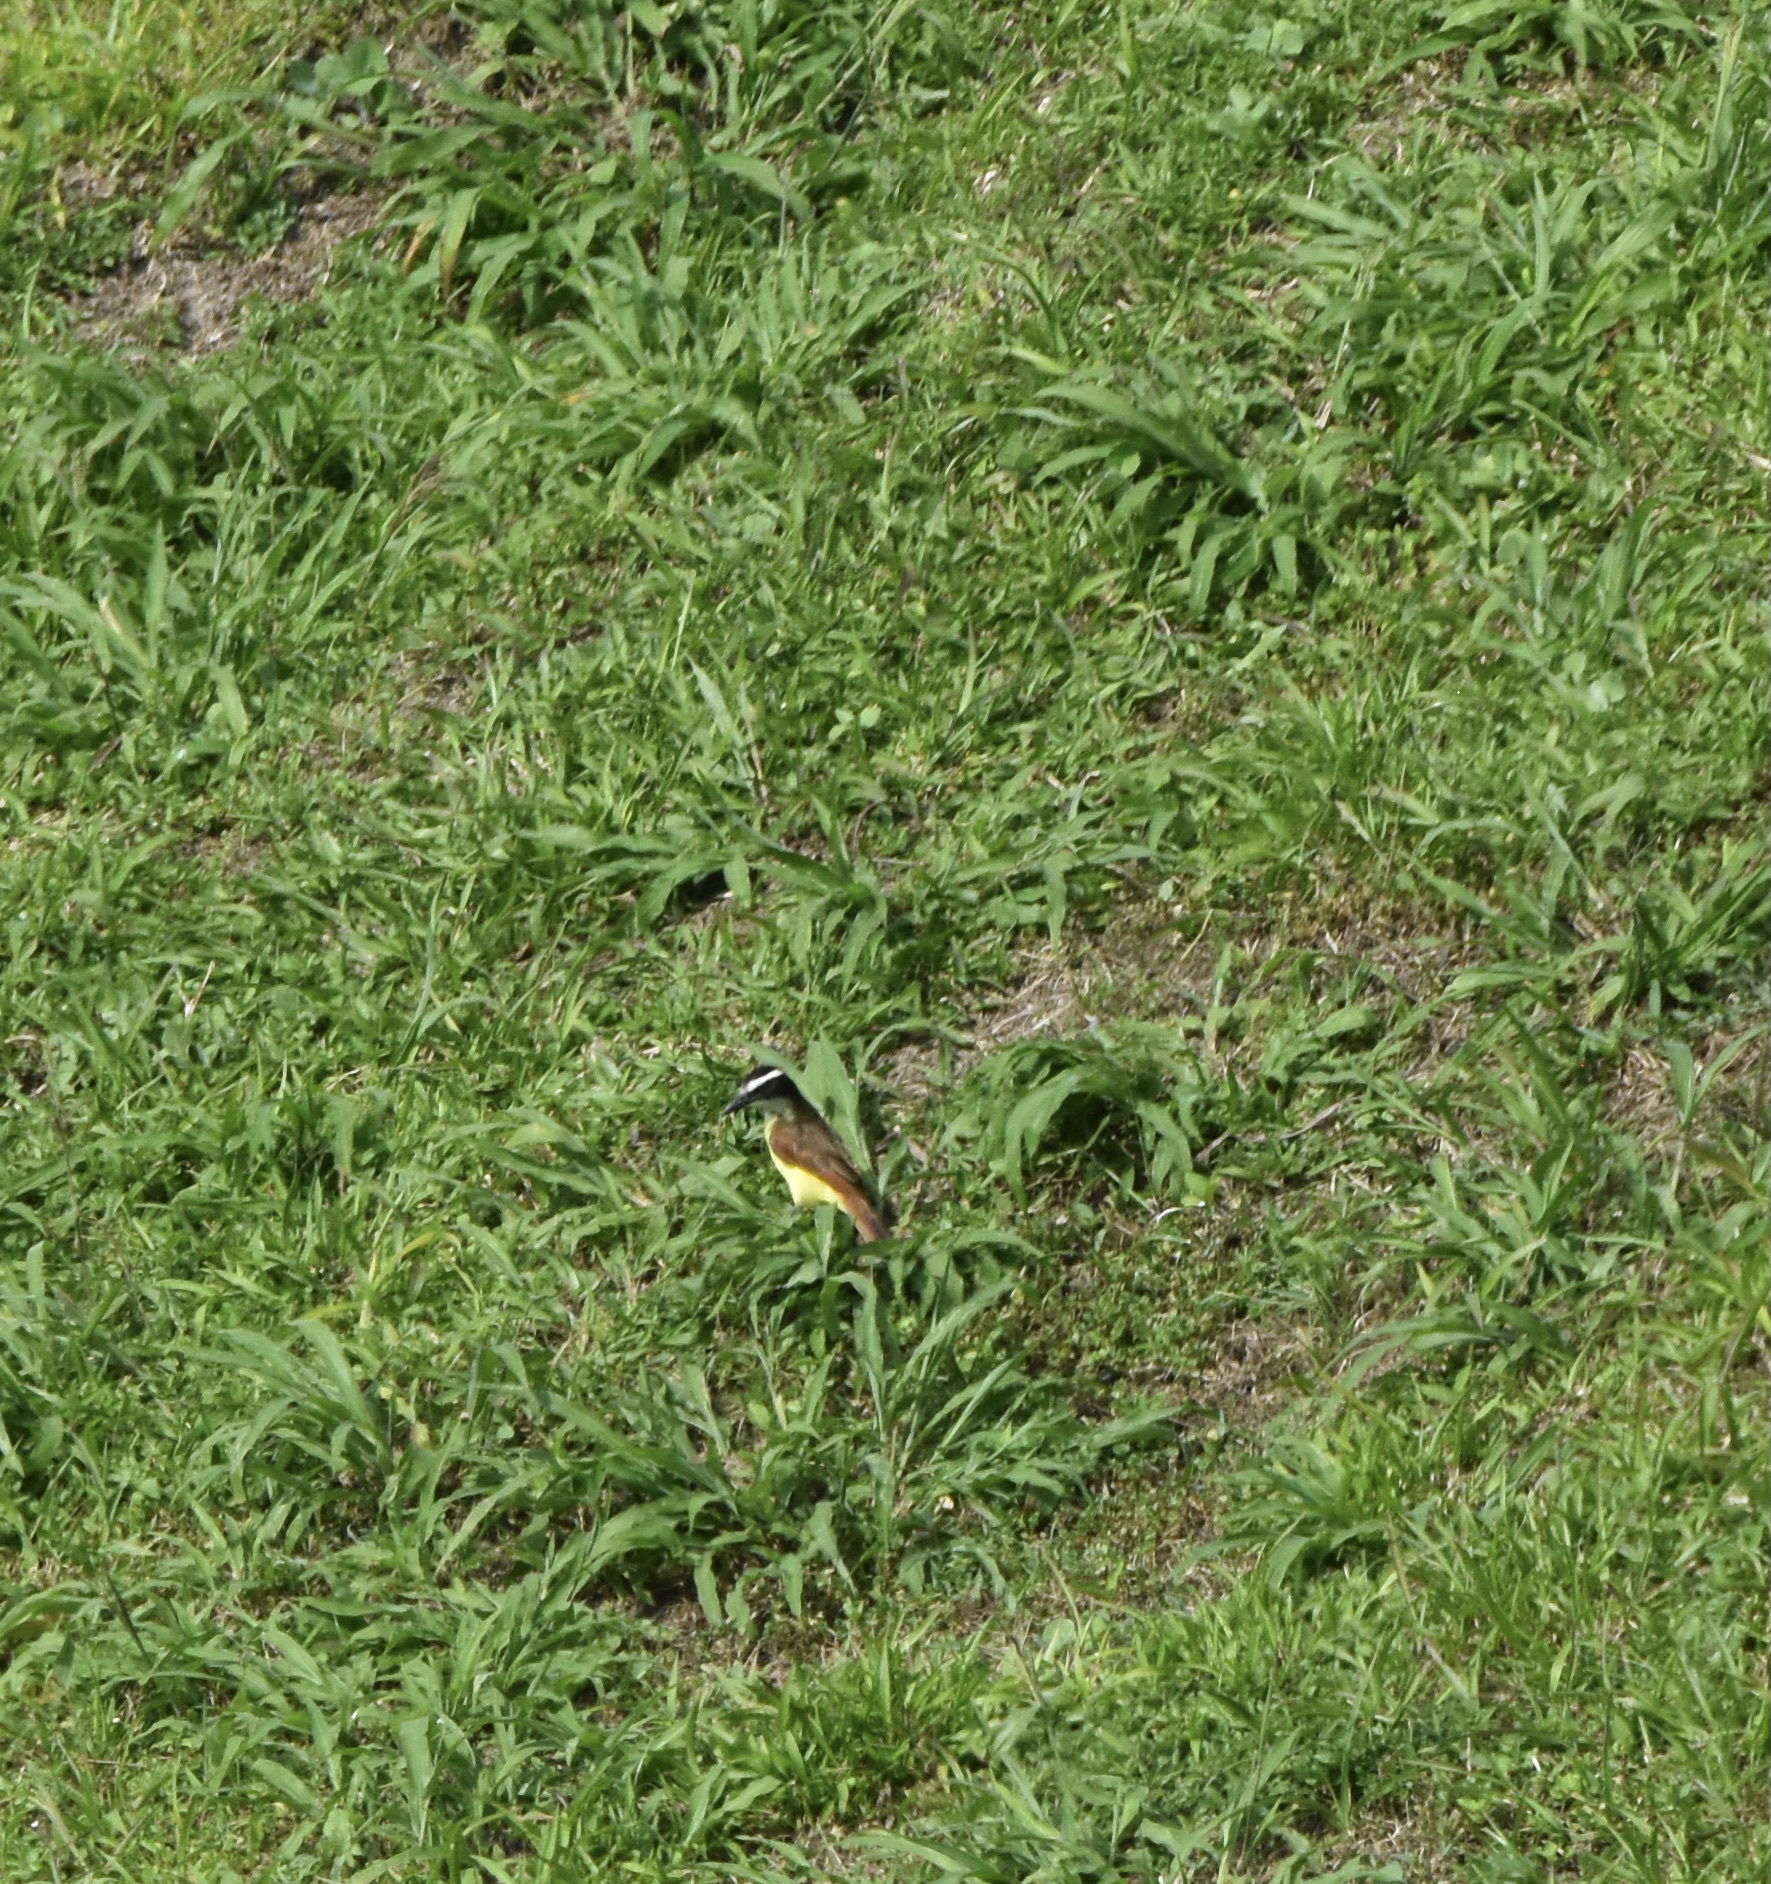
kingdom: Animalia
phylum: Chordata
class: Aves
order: Passeriformes
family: Tyrannidae
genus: Pitangus
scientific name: Pitangus sulphuratus
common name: Great kiskadee
